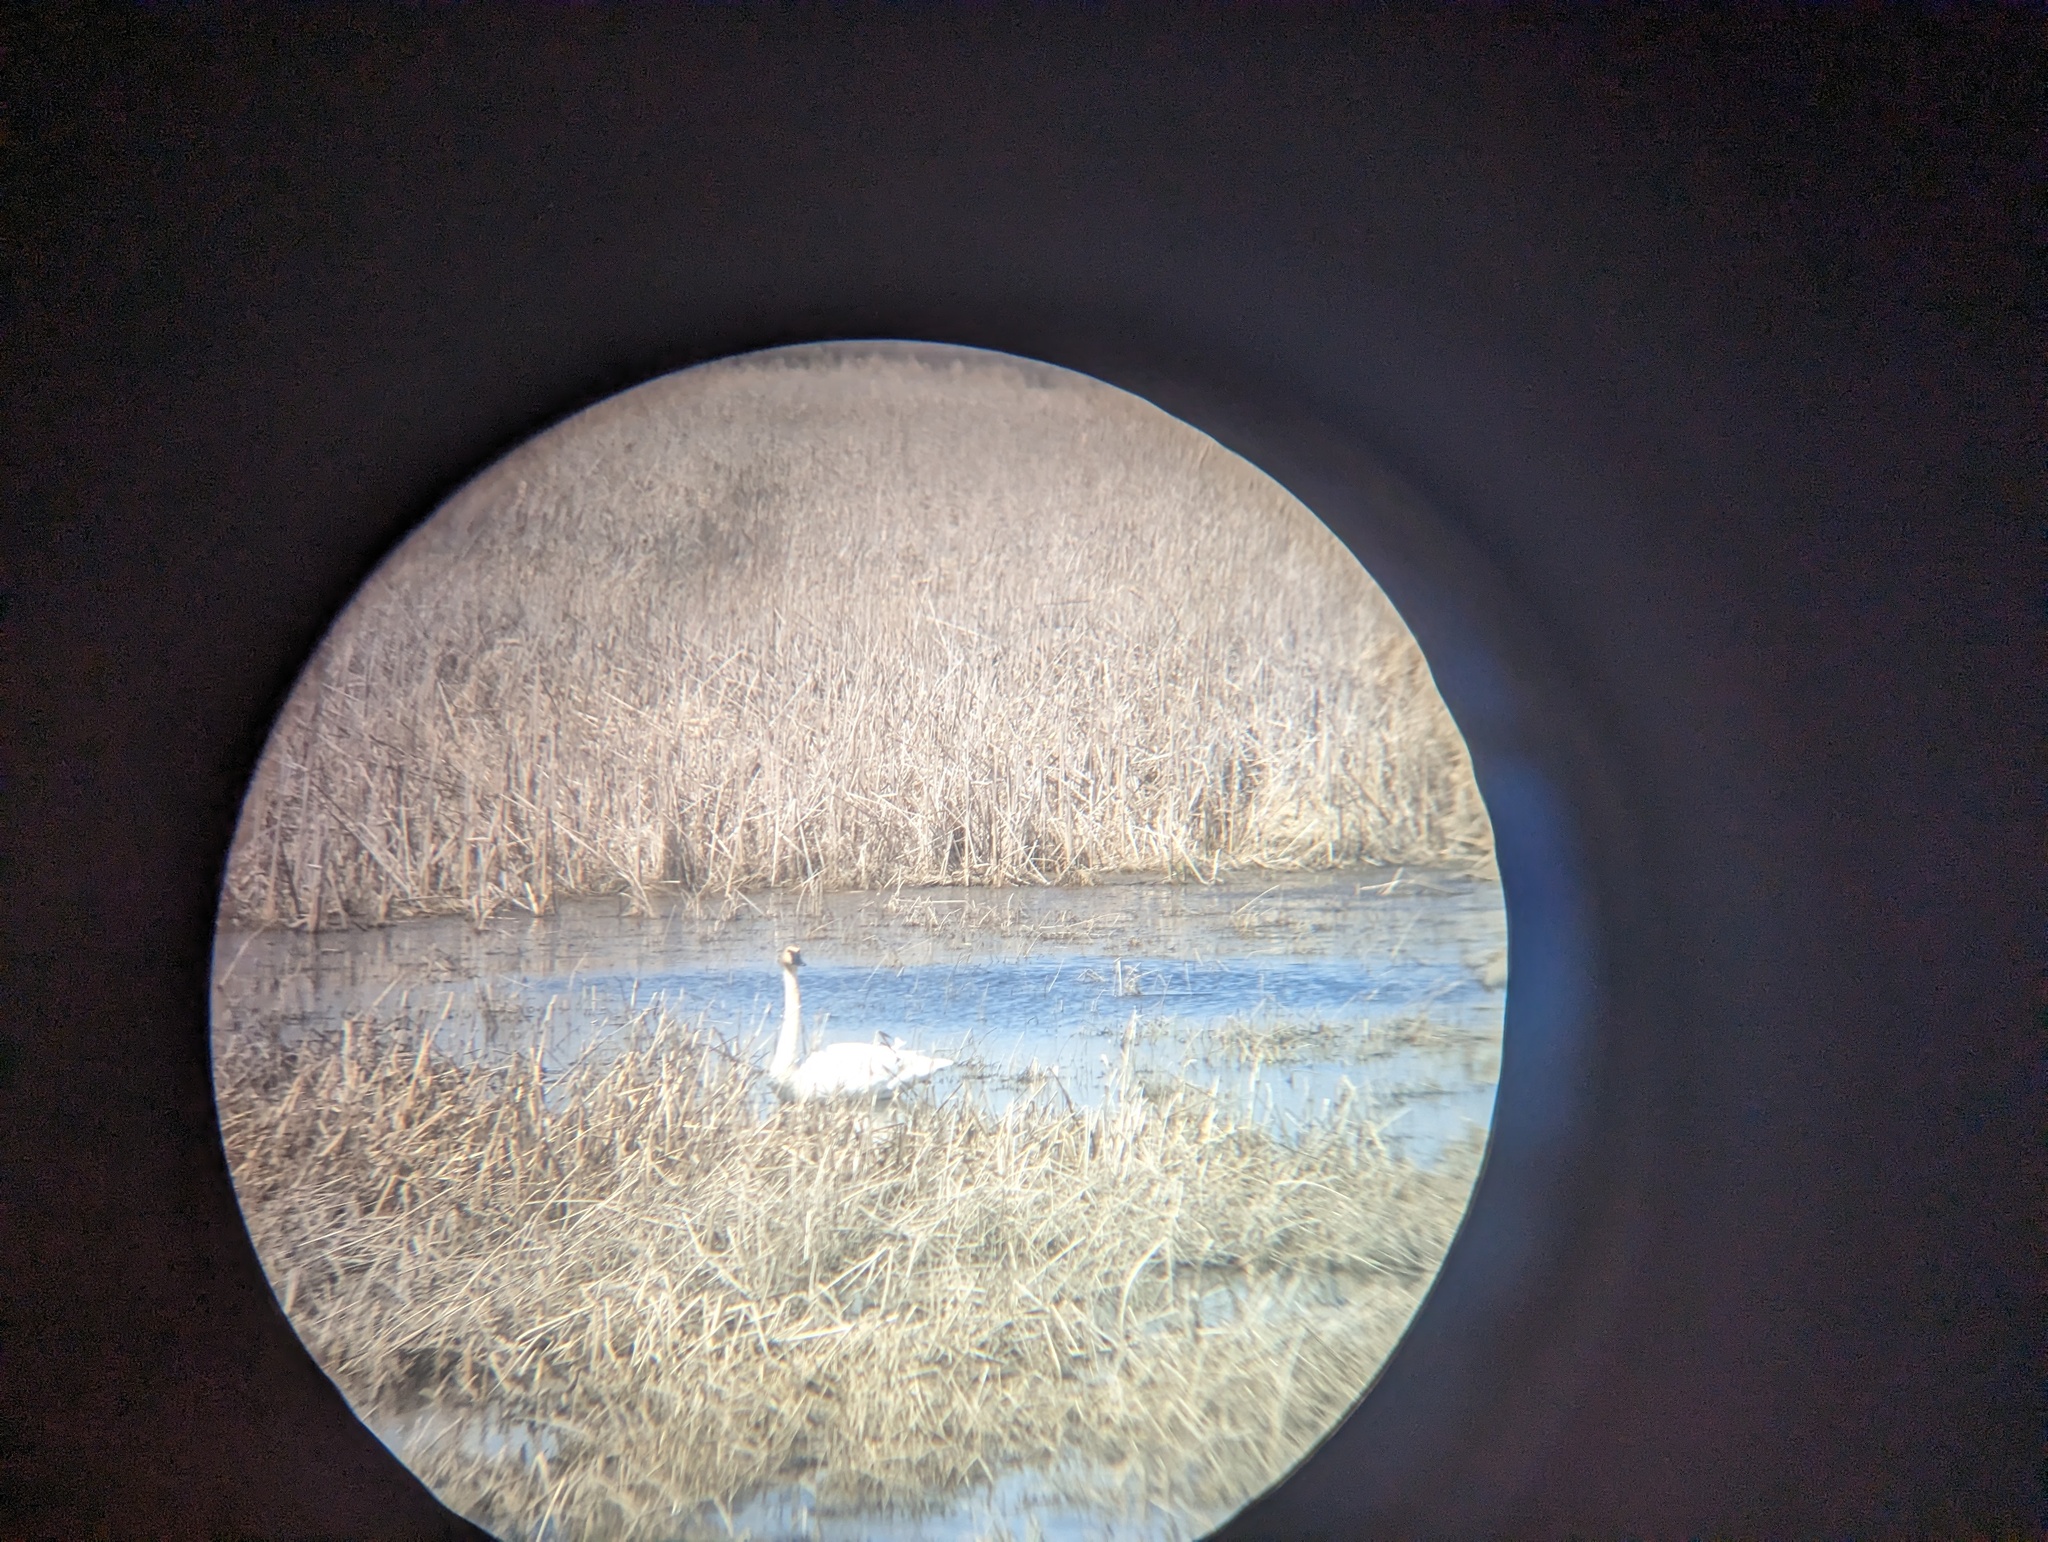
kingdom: Animalia
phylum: Chordata
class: Aves
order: Anseriformes
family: Anatidae
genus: Cygnus
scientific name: Cygnus buccinator
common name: Trumpeter swan
